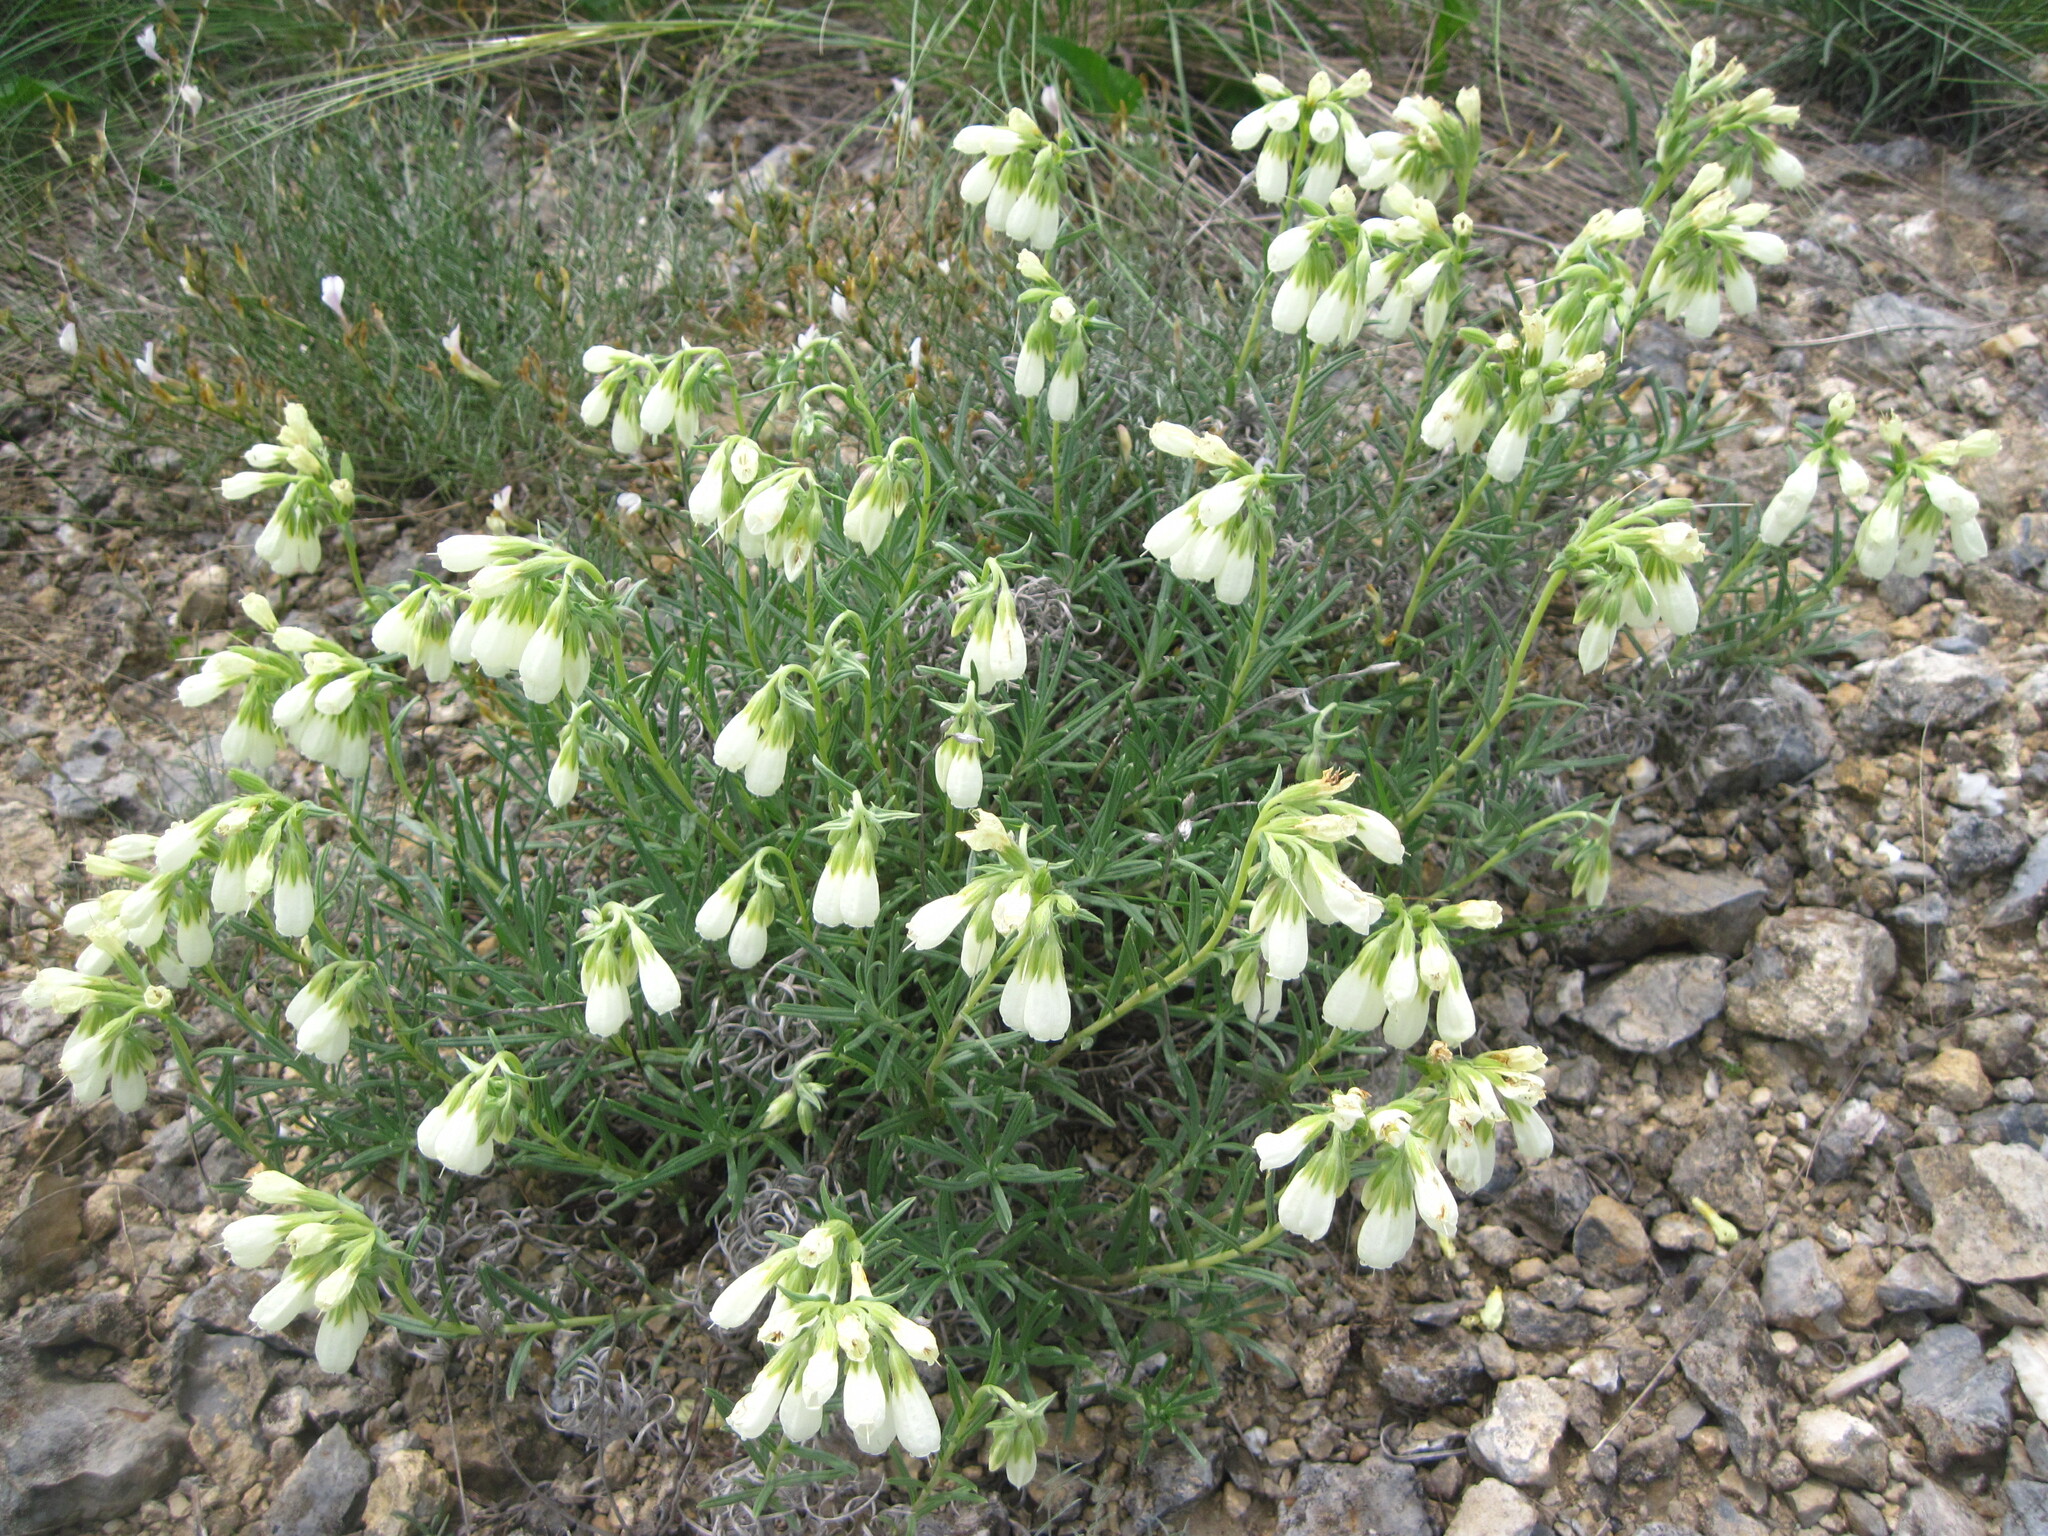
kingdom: Plantae
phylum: Tracheophyta
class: Magnoliopsida
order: Boraginales
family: Boraginaceae
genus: Onosma
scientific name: Onosma simplicissima
